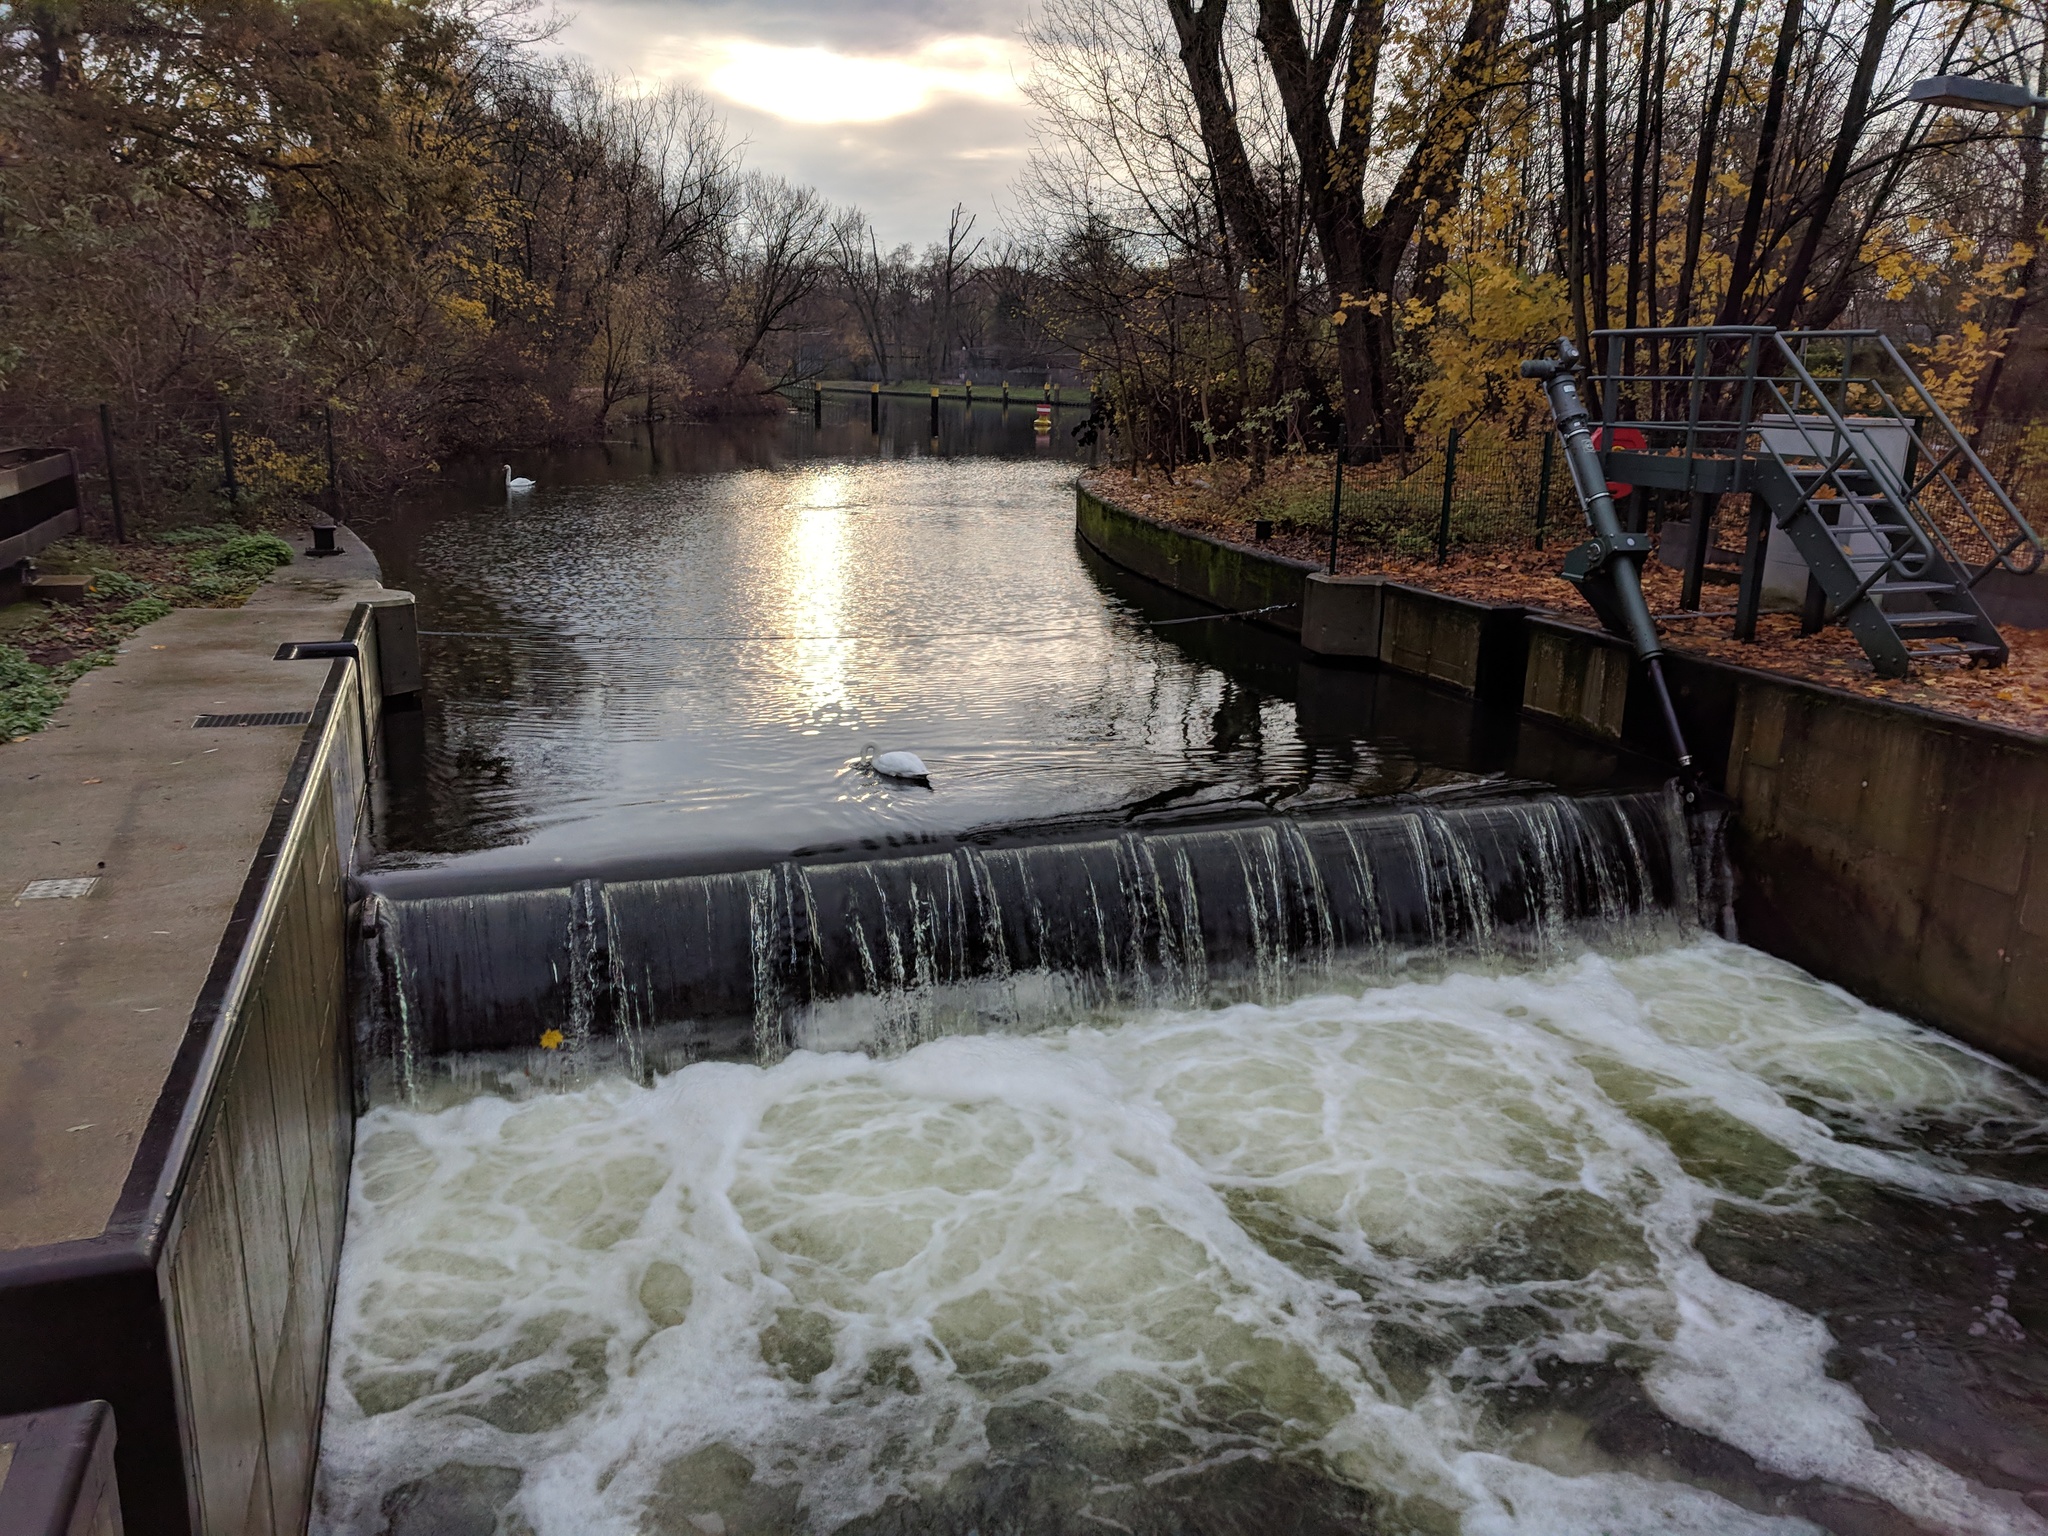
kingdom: Animalia
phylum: Chordata
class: Aves
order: Anseriformes
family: Anatidae
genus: Cygnus
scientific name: Cygnus olor
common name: Mute swan
